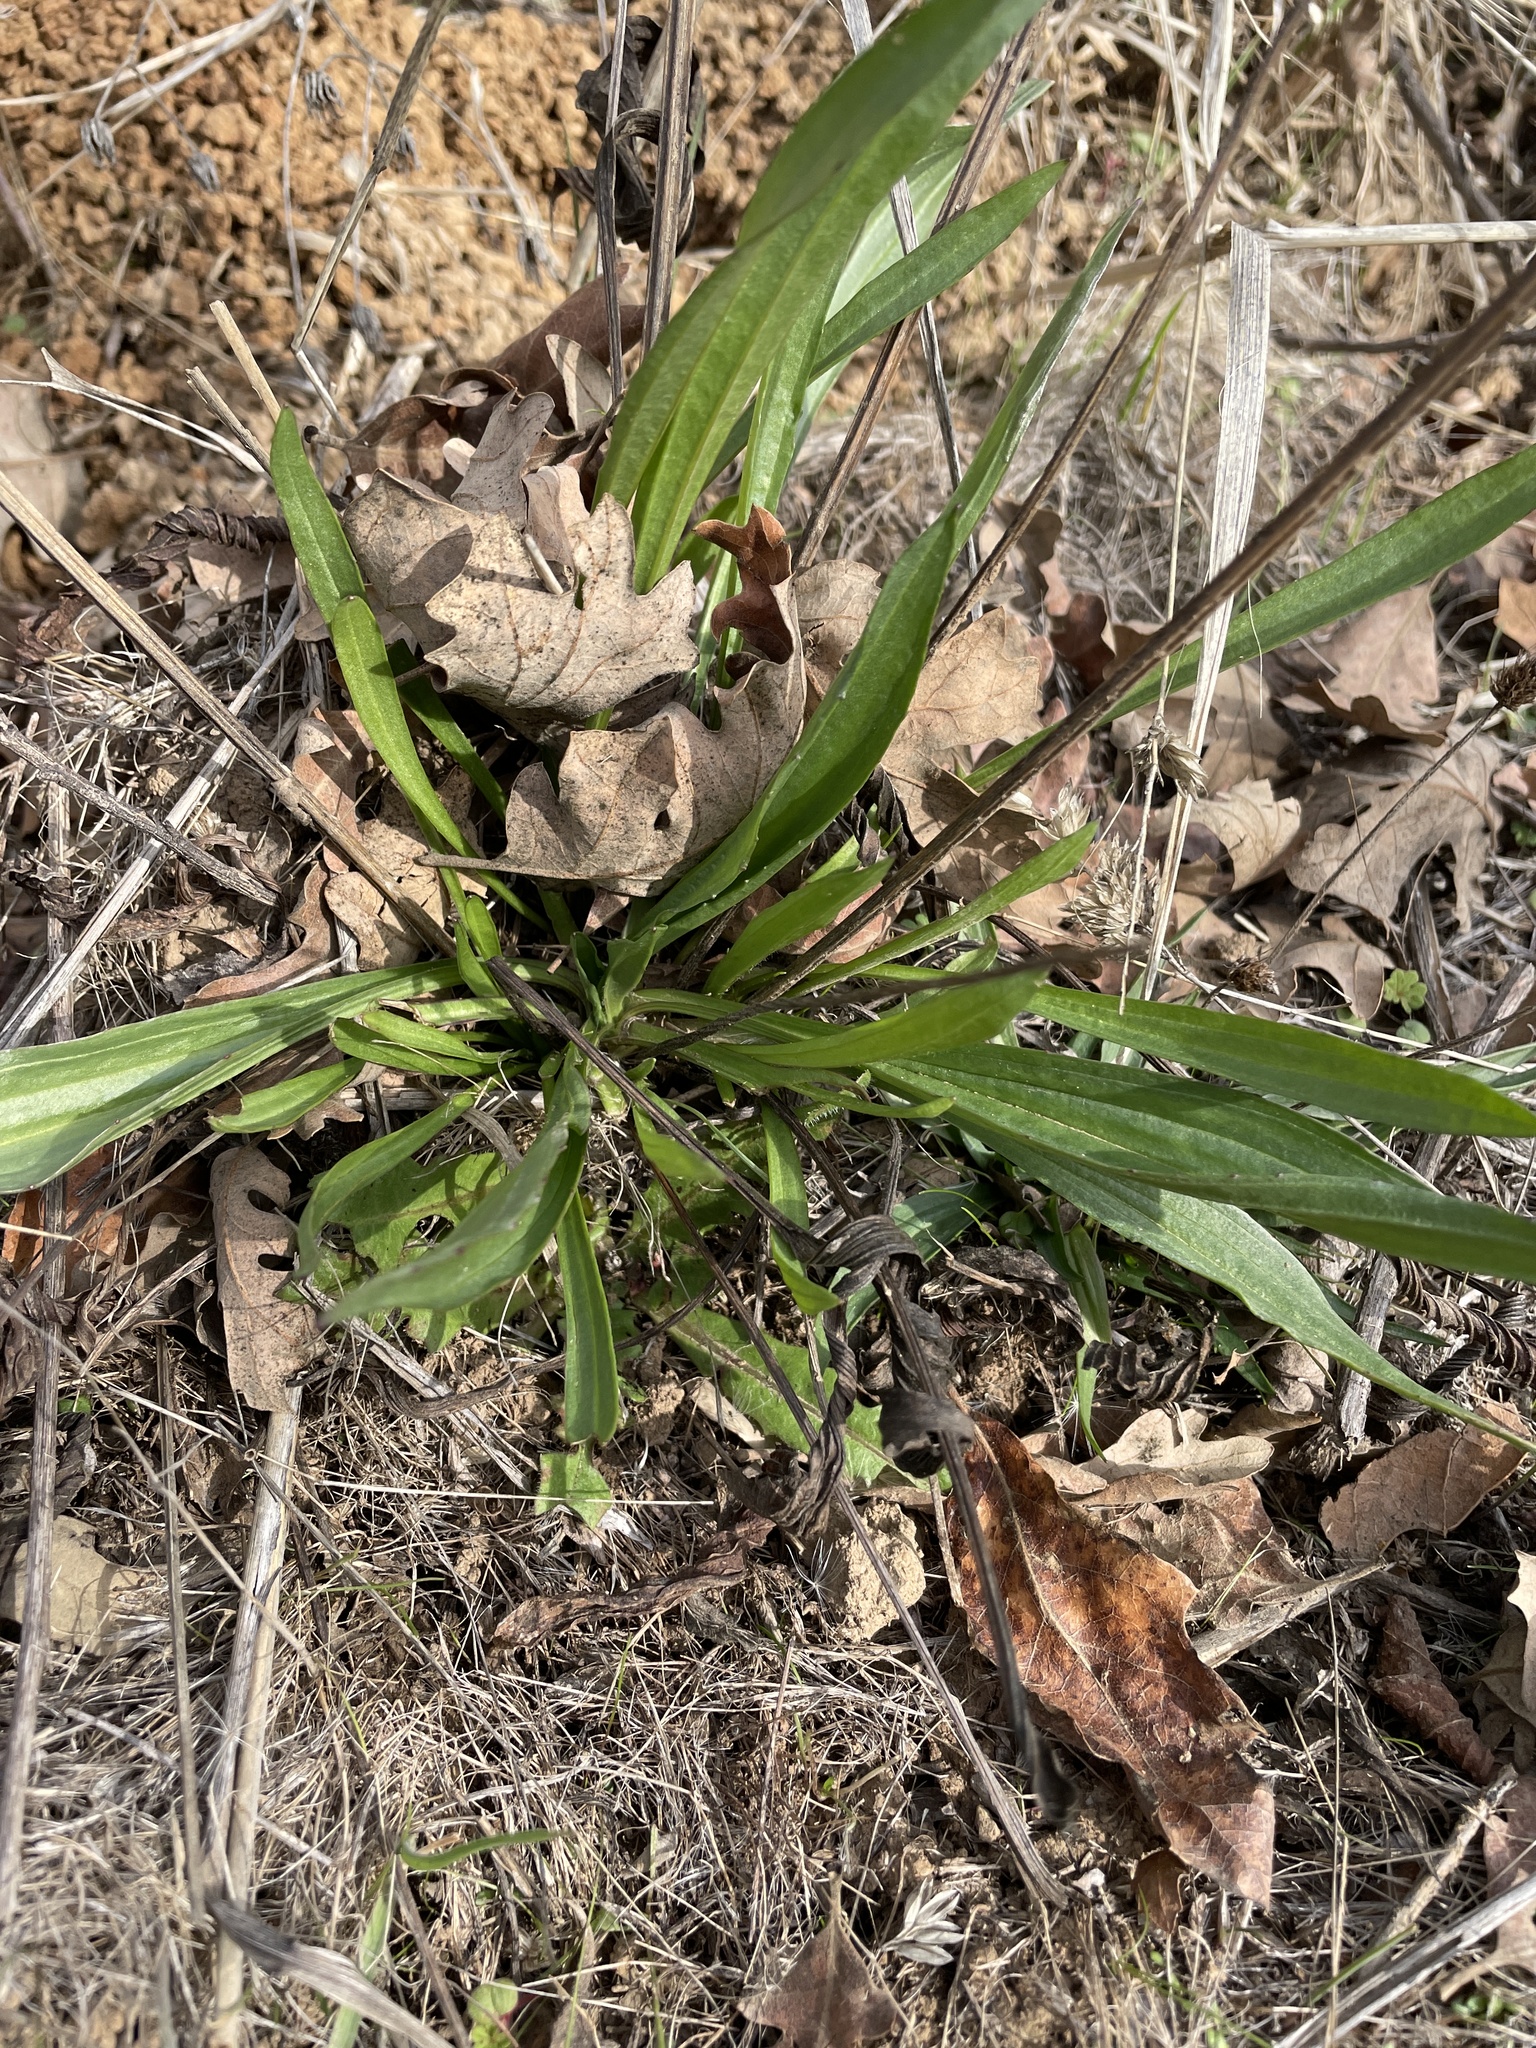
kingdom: Plantae
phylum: Tracheophyta
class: Magnoliopsida
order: Lamiales
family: Plantaginaceae
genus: Plantago
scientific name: Plantago lanceolata
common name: Ribwort plantain
